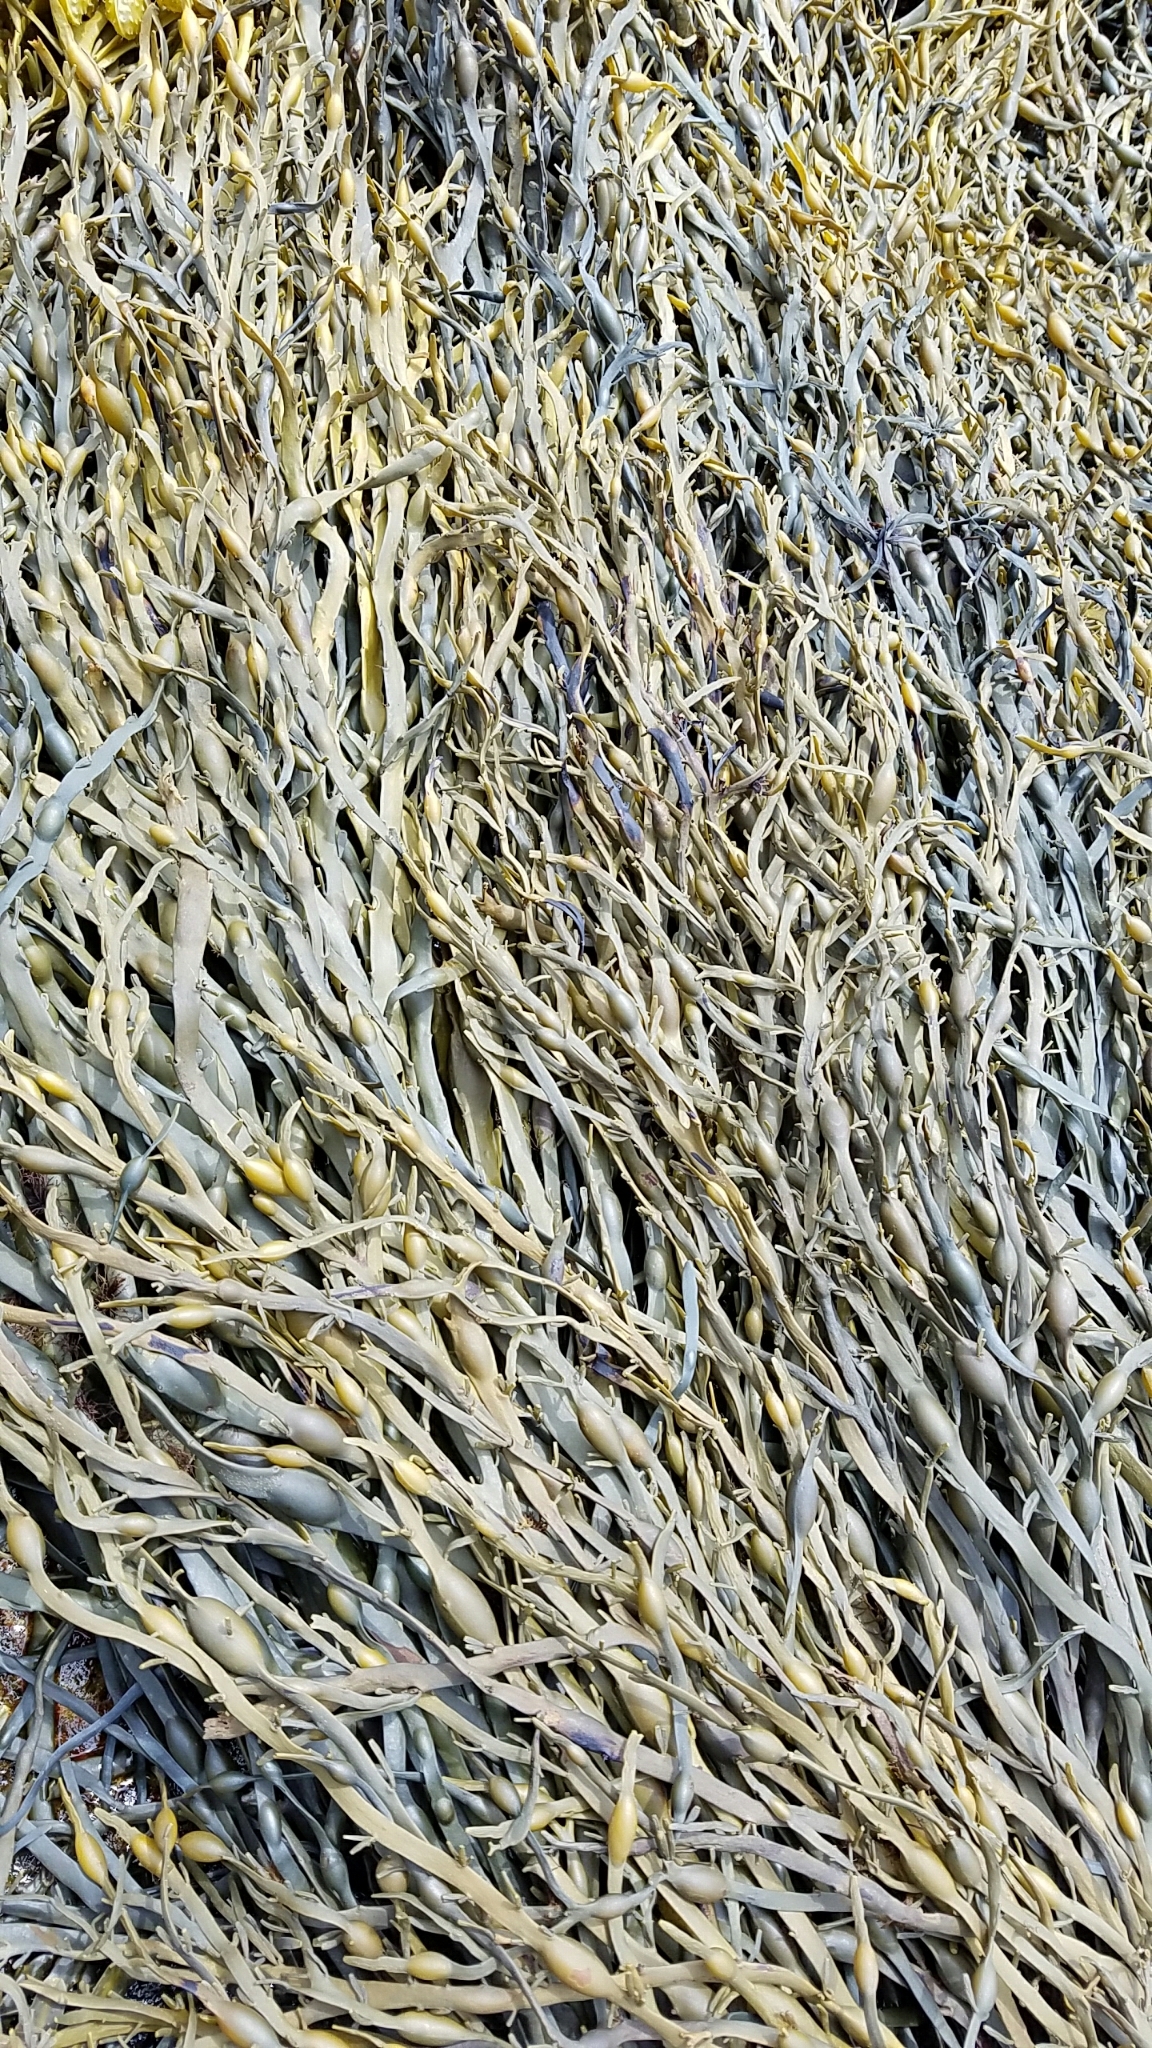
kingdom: Chromista
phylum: Ochrophyta
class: Phaeophyceae
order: Fucales
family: Fucaceae
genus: Ascophyllum
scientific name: Ascophyllum nodosum
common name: Knotted wrack
